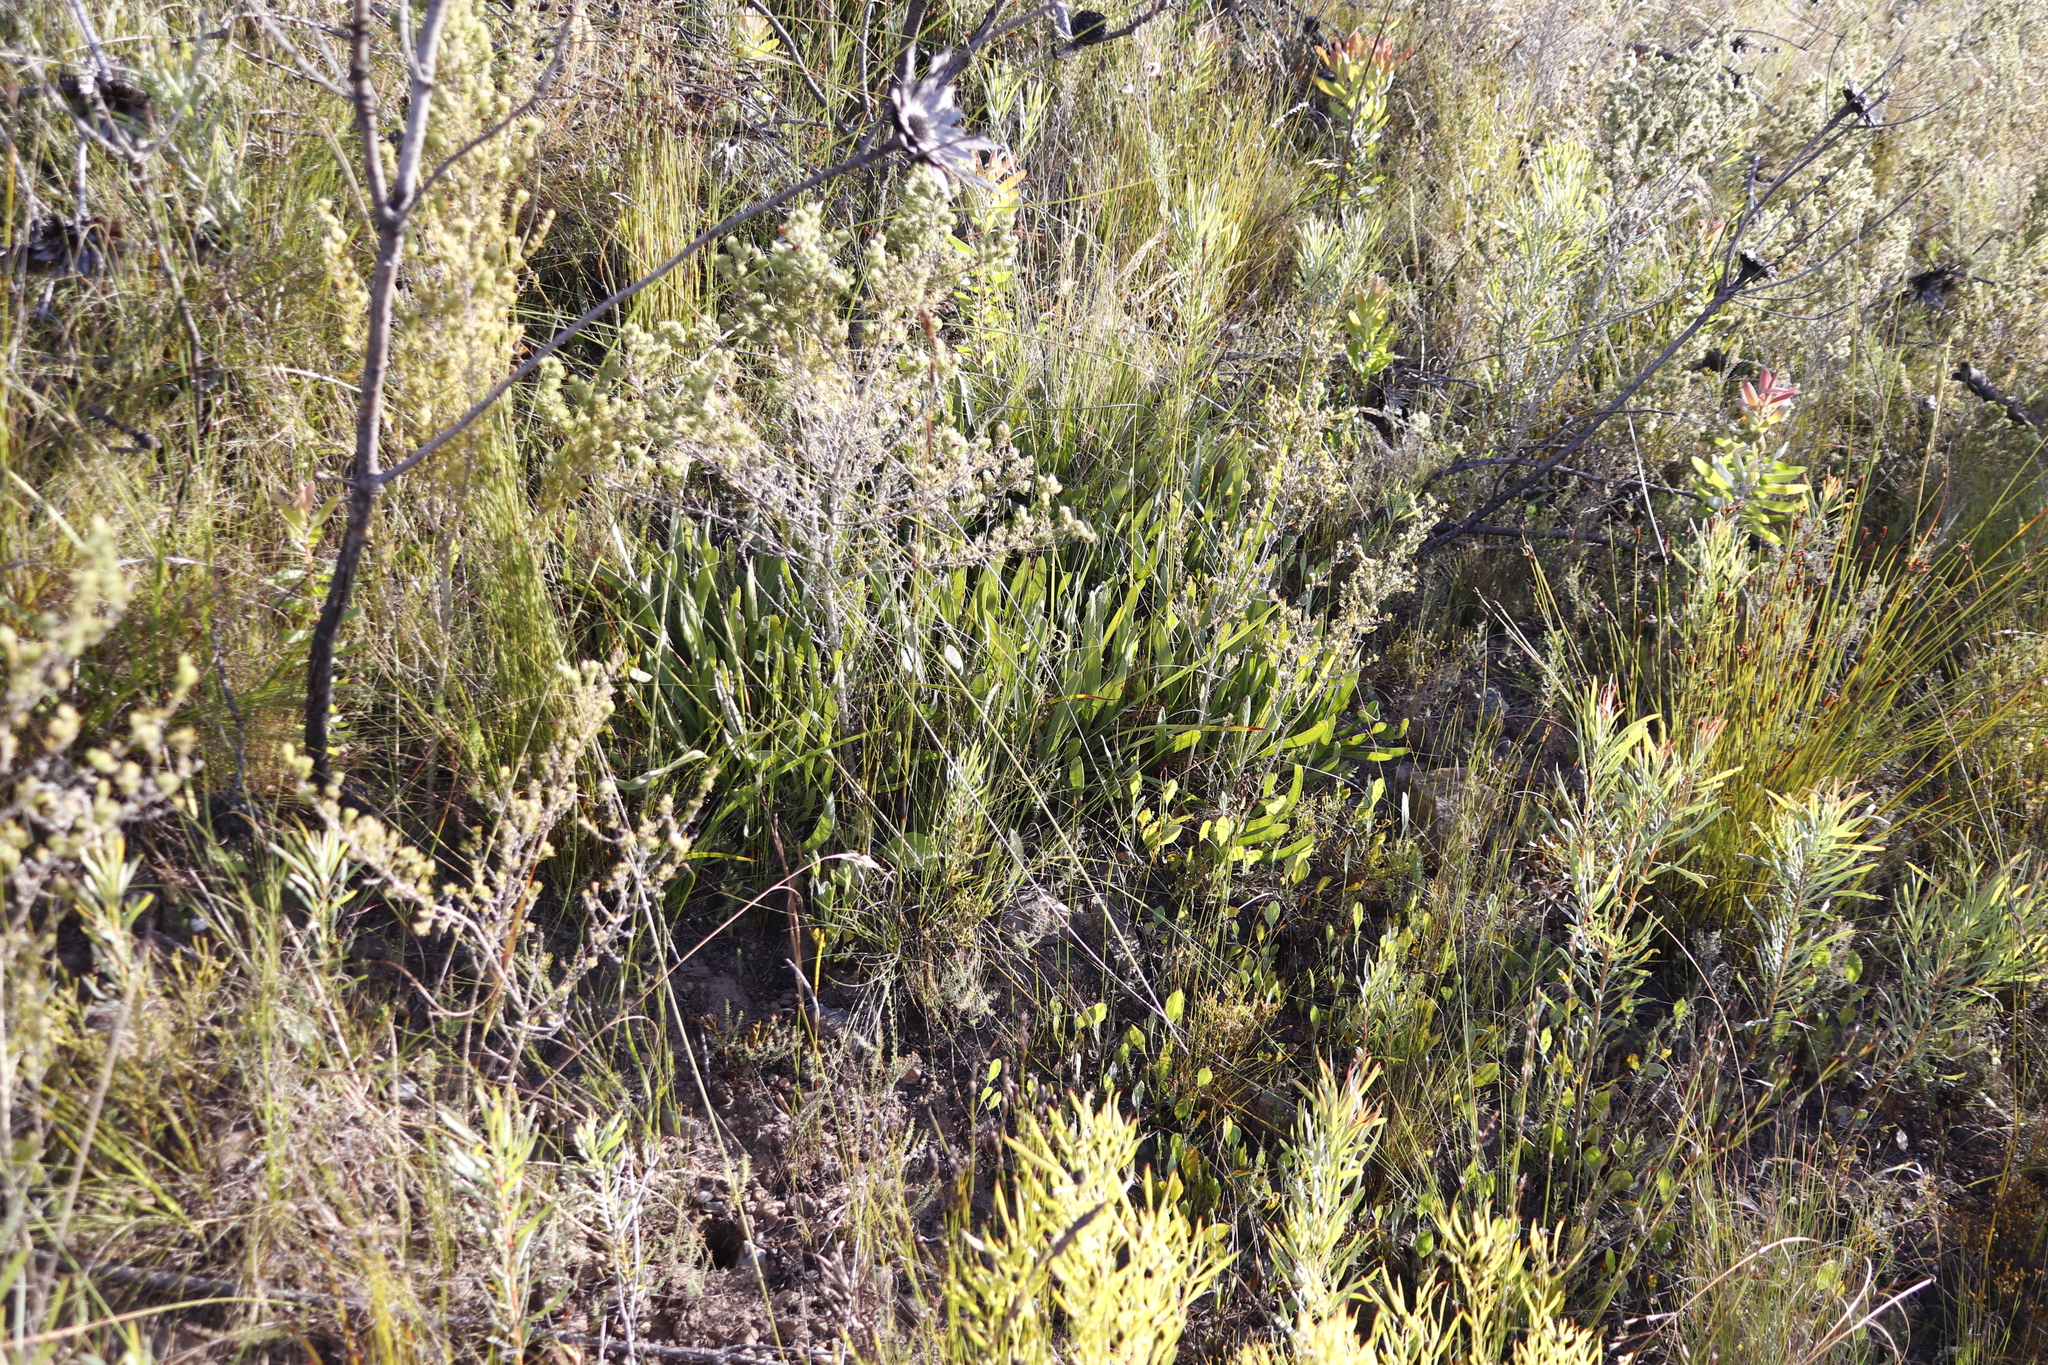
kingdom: Plantae
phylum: Tracheophyta
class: Magnoliopsida
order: Proteales
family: Proteaceae
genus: Protea
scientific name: Protea scabra
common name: Sandpaper-leaf sugarbush
